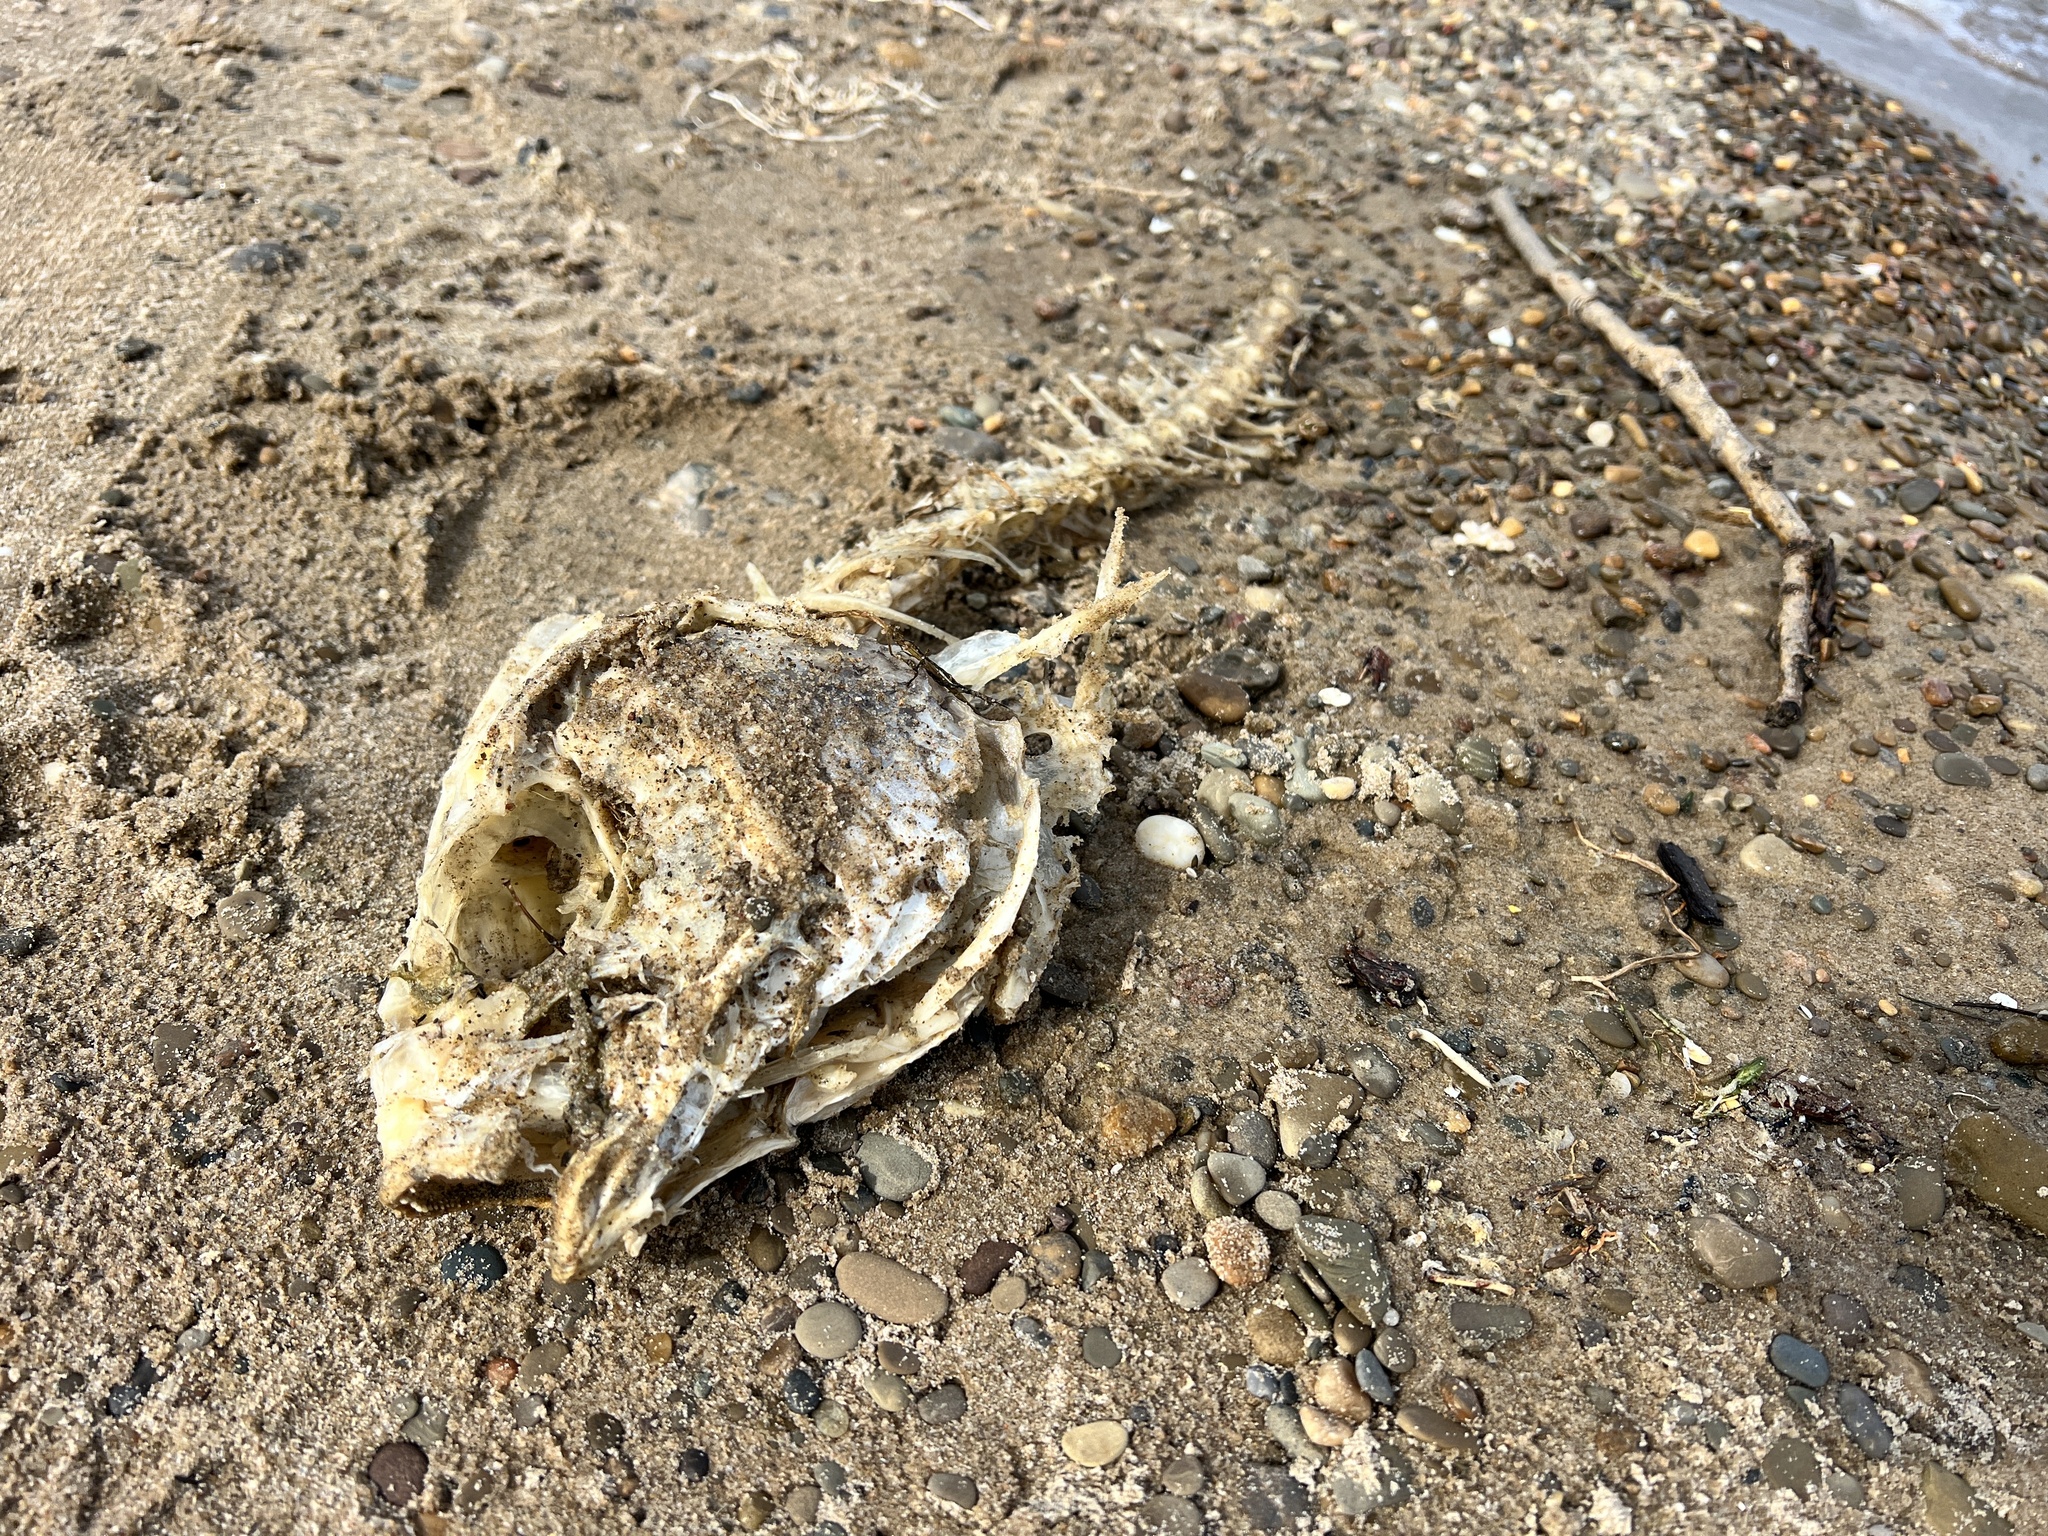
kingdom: Animalia
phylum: Chordata
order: Perciformes
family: Sciaenidae
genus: Aplodinotus
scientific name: Aplodinotus grunniens
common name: Freshwater drum
